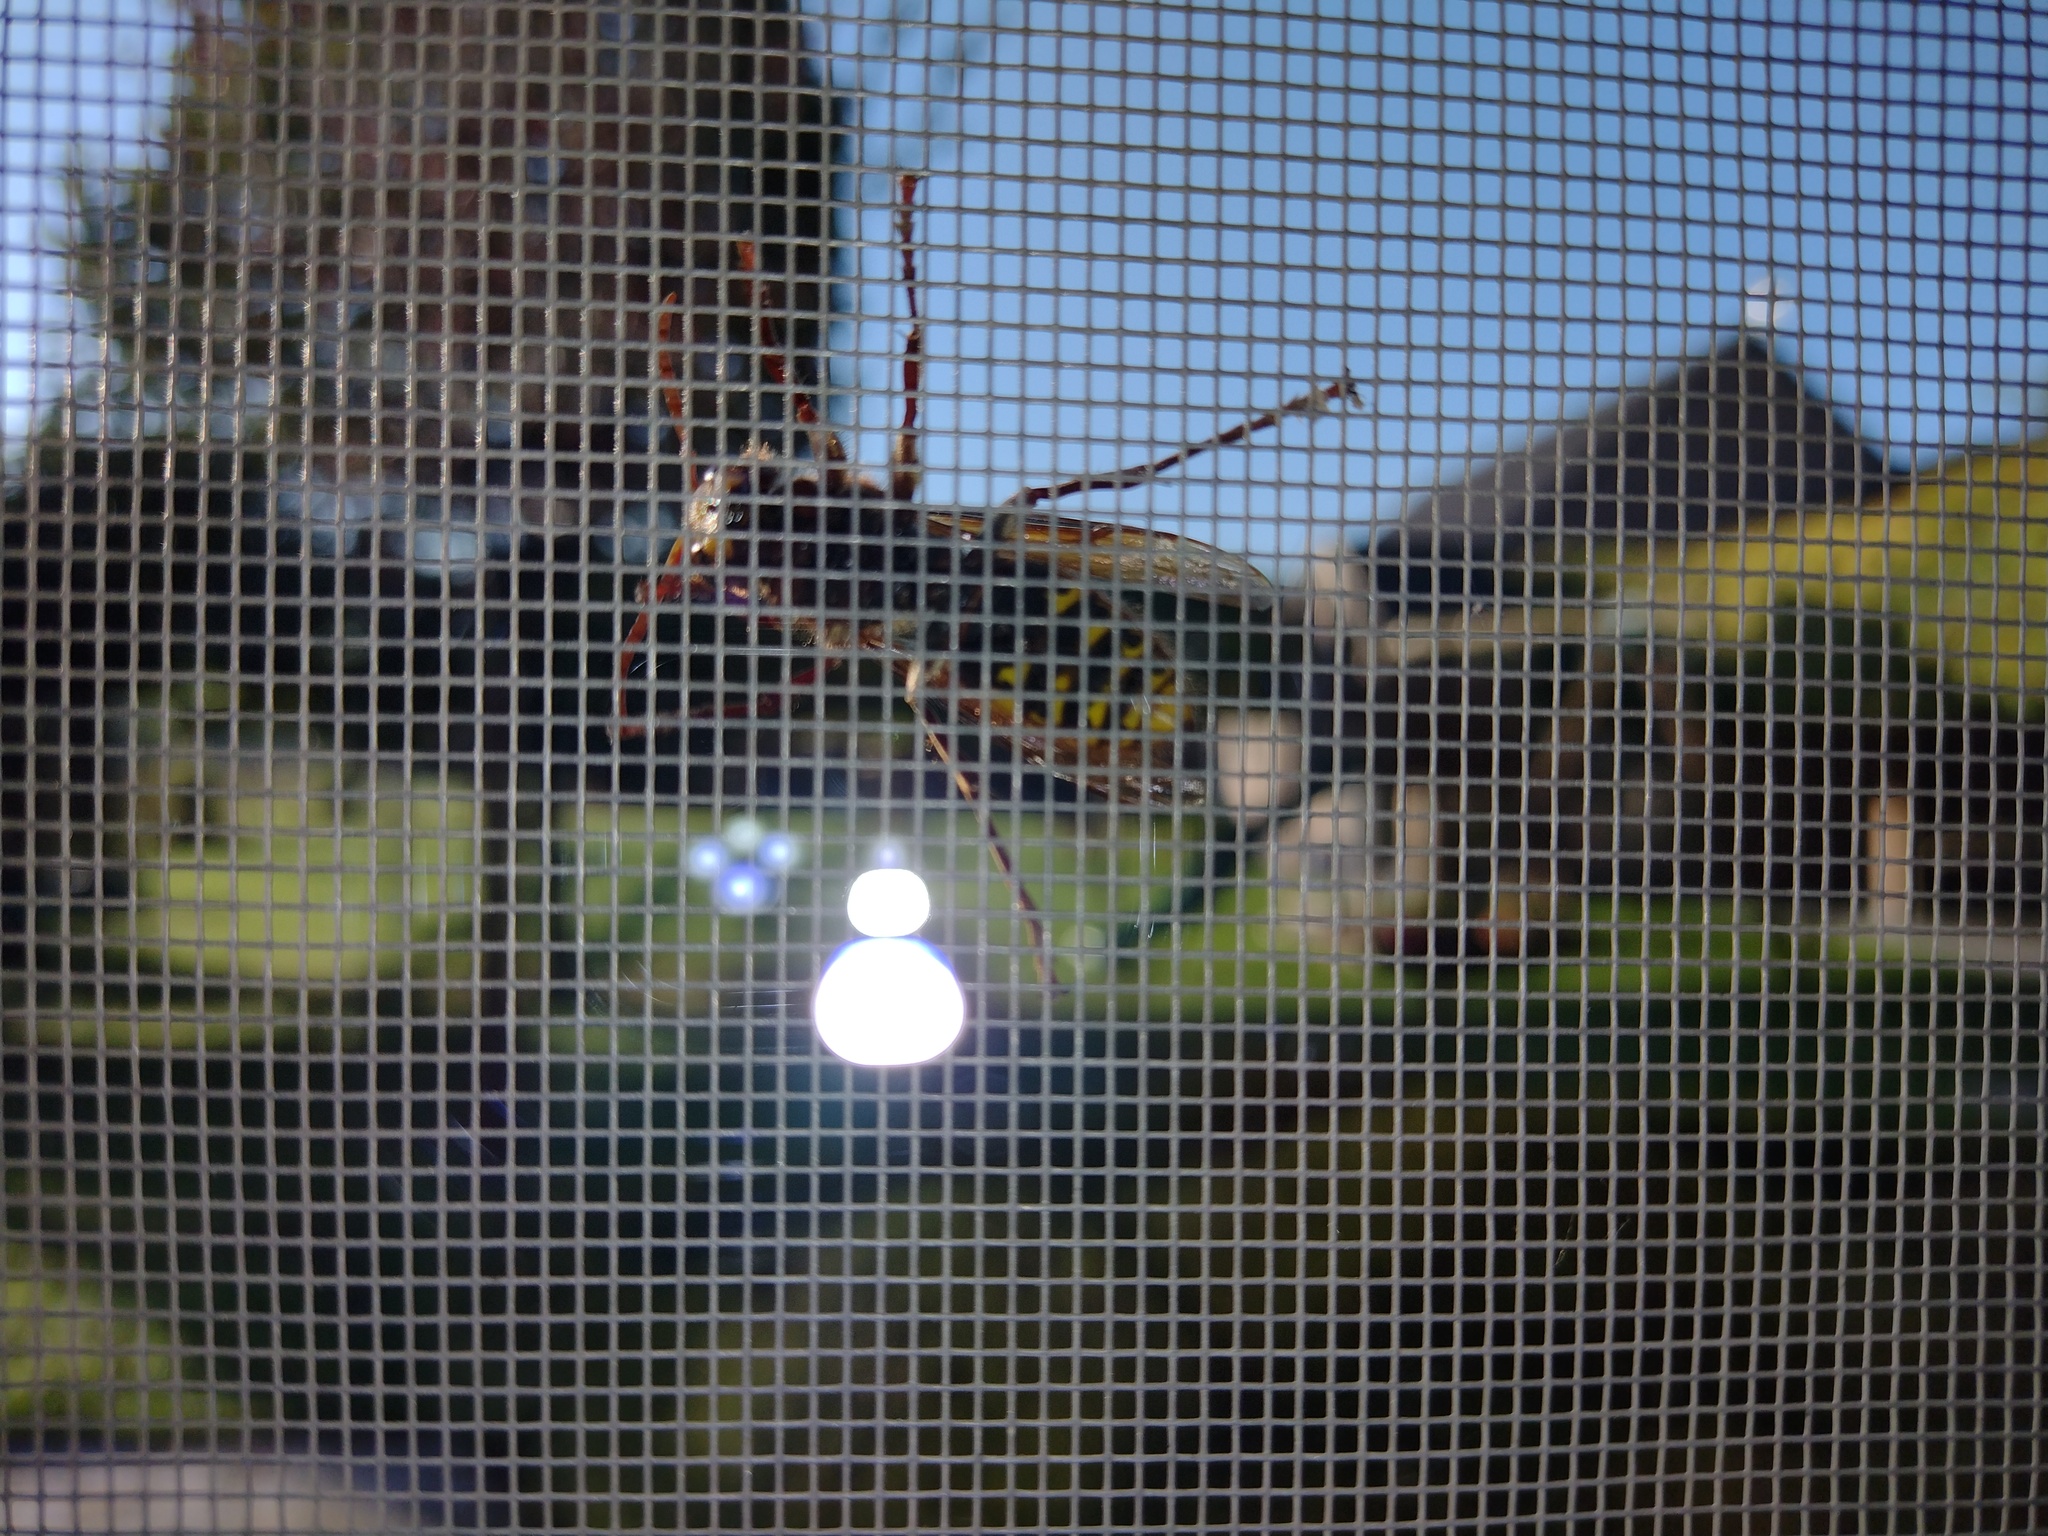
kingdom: Animalia
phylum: Arthropoda
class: Insecta
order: Hymenoptera
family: Vespidae
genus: Vespa
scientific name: Vespa crabro
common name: Hornet
